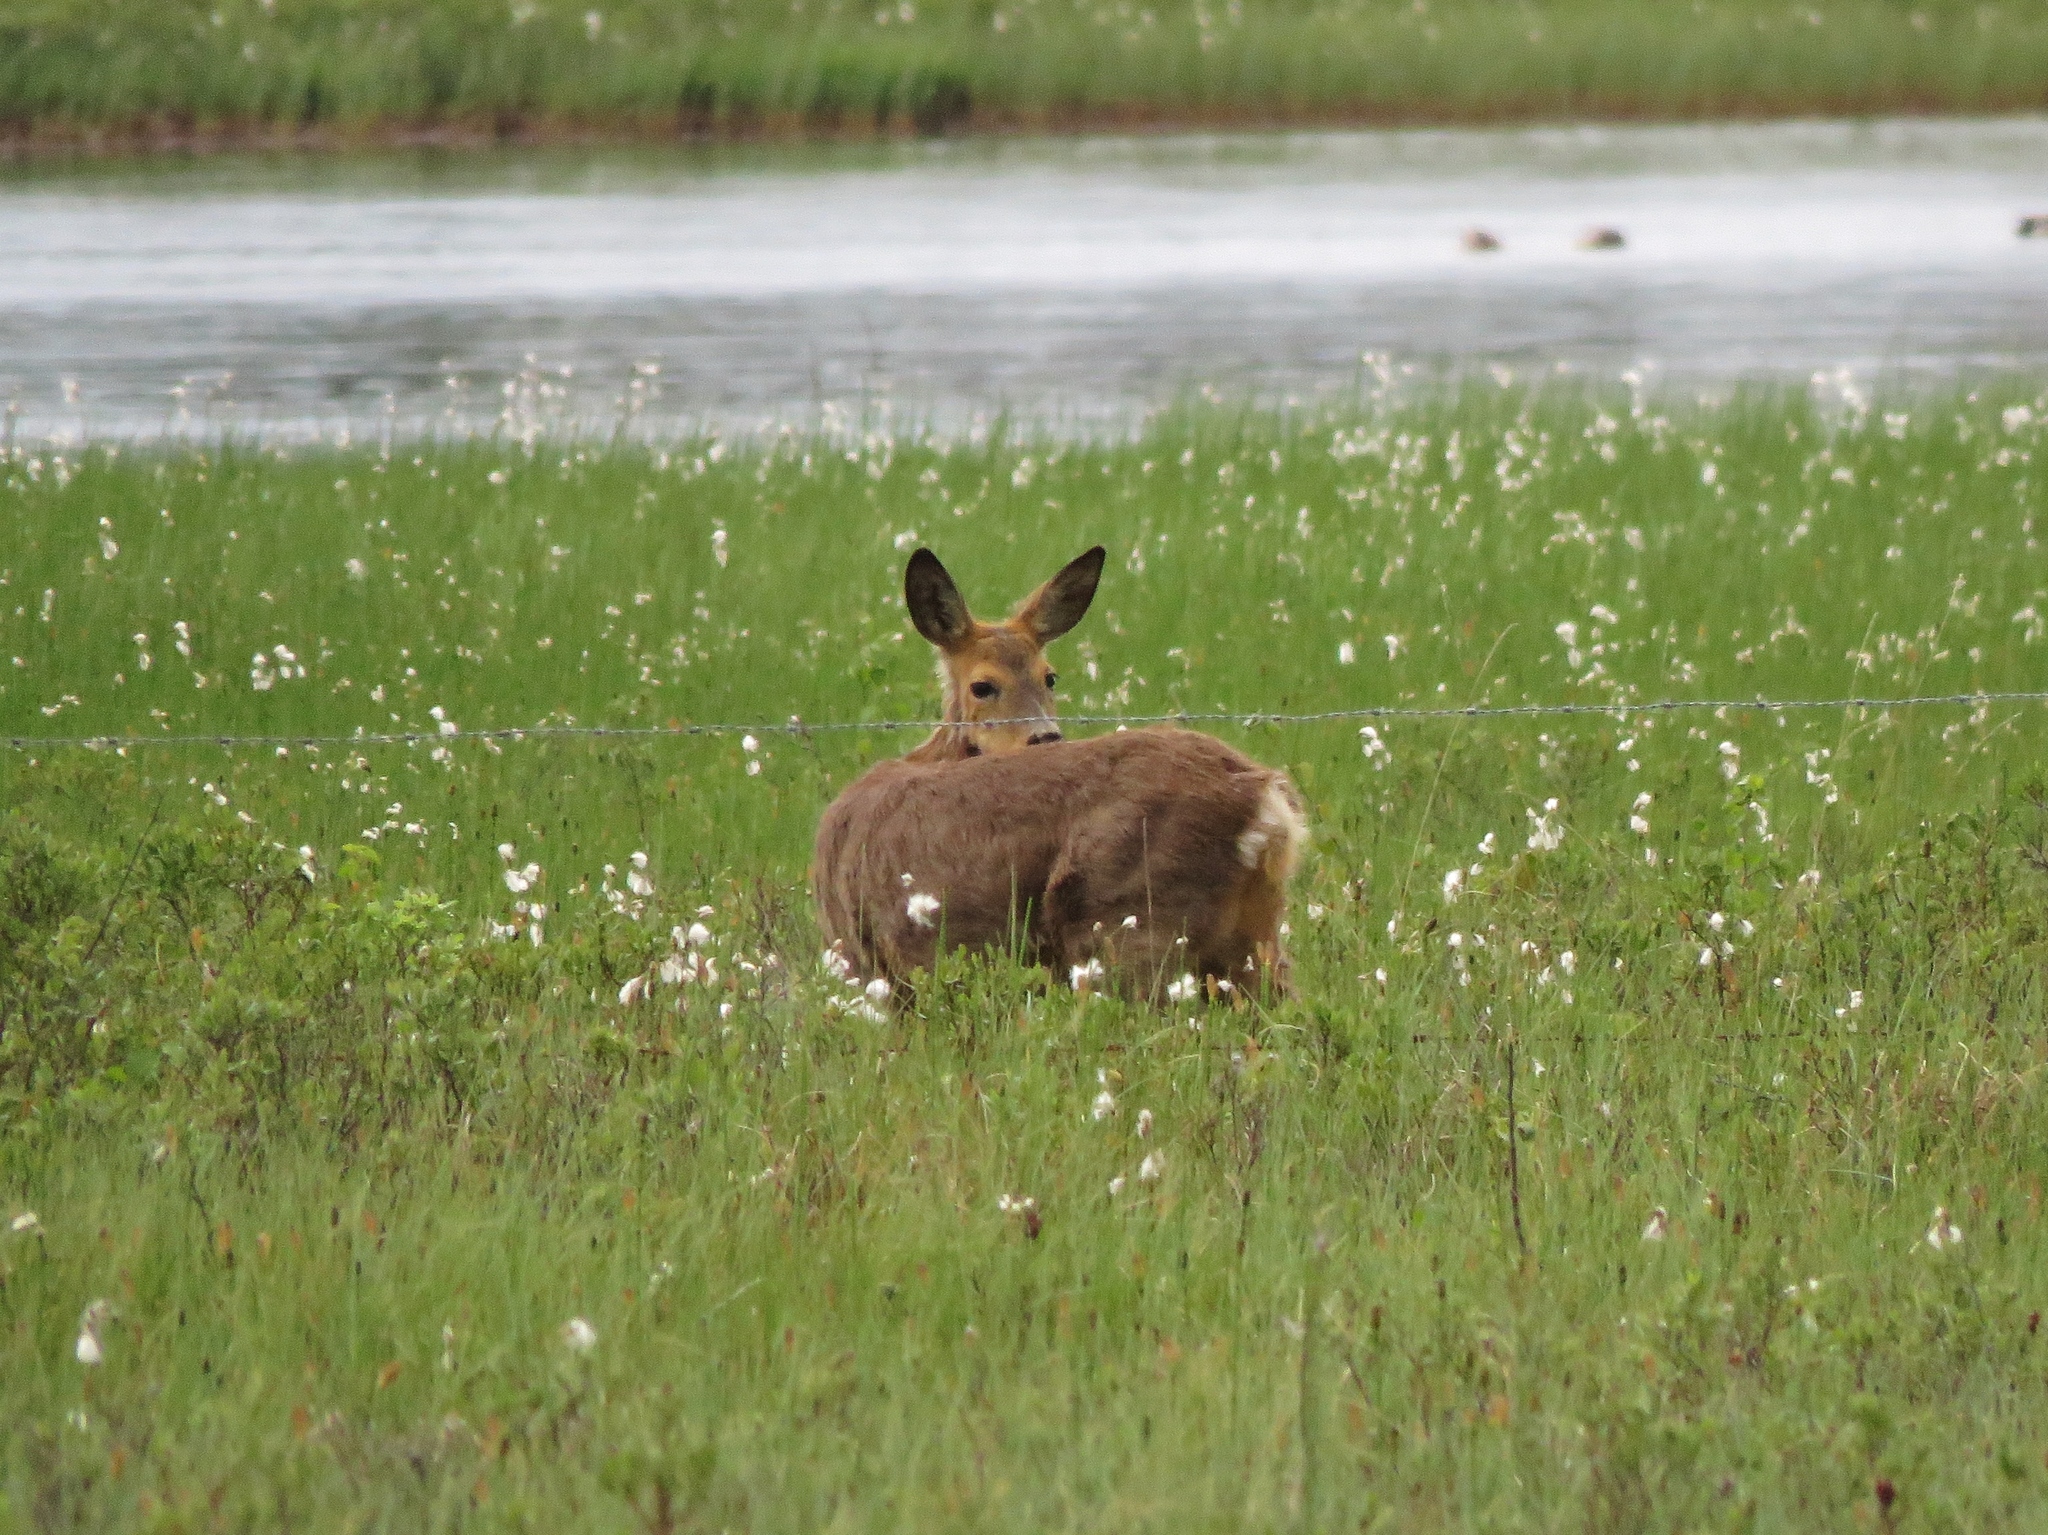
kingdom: Animalia
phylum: Chordata
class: Mammalia
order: Artiodactyla
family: Cervidae
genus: Capreolus
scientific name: Capreolus capreolus
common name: Western roe deer
